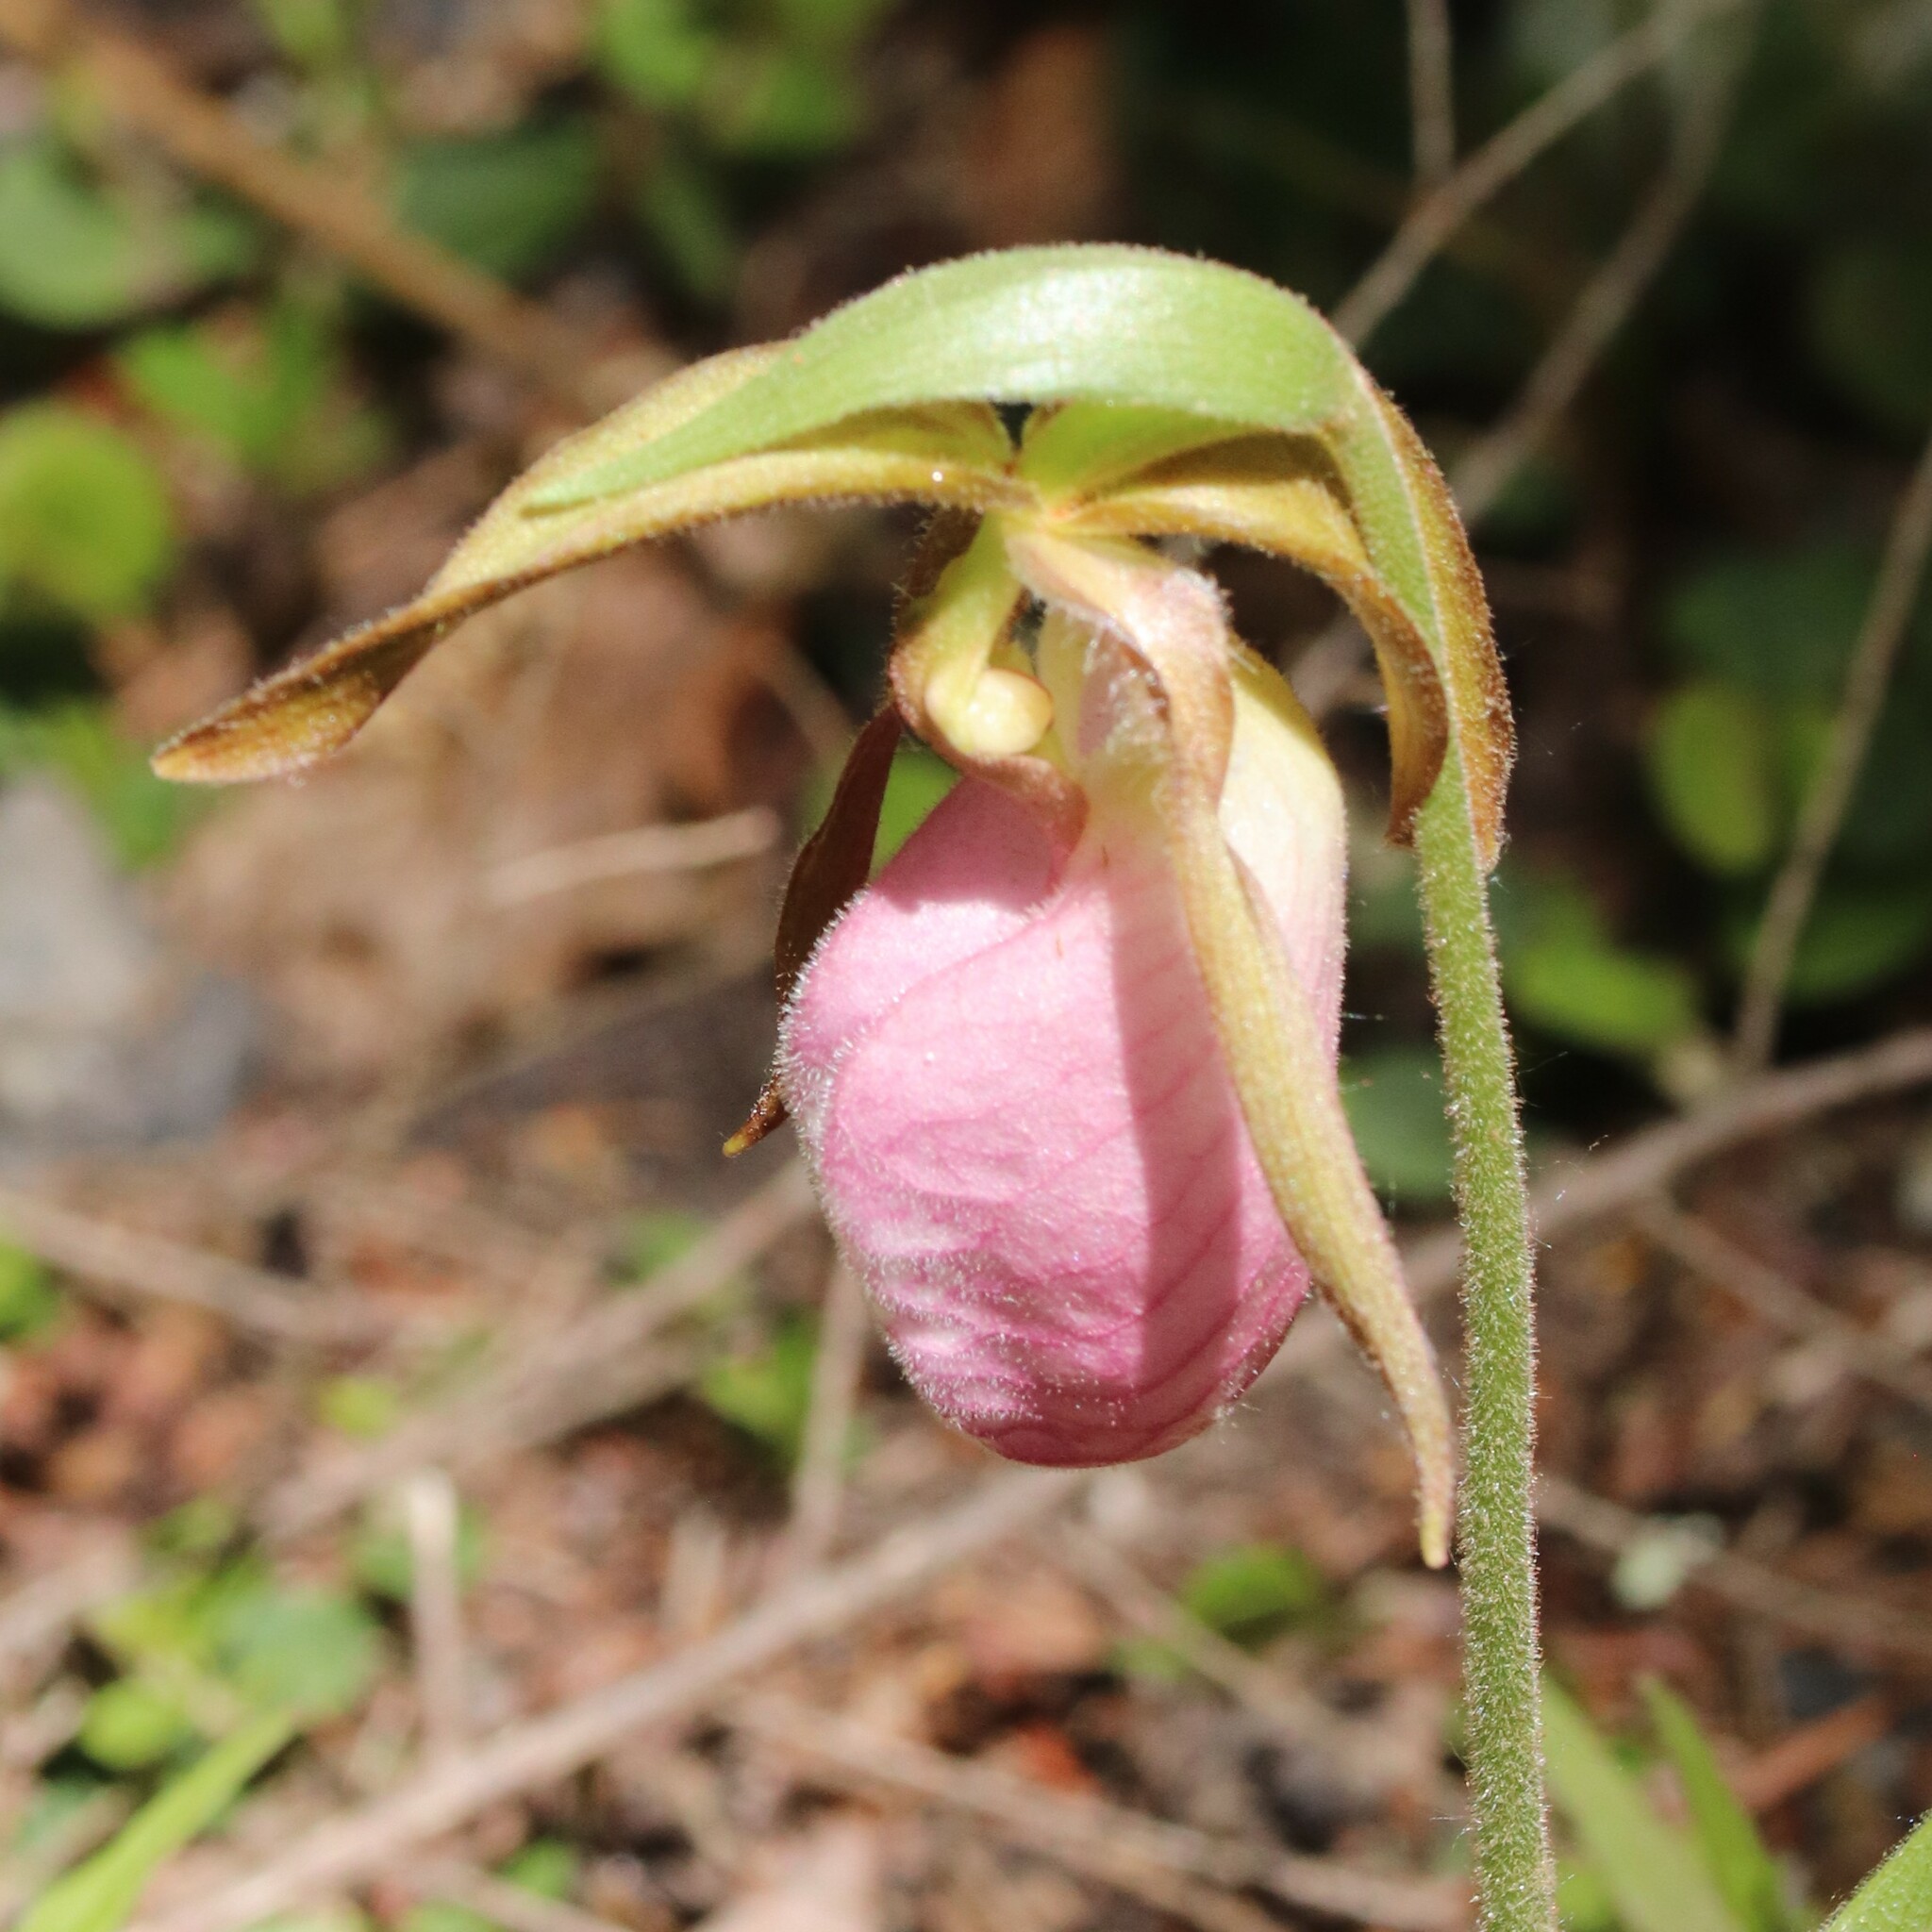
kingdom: Plantae
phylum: Tracheophyta
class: Liliopsida
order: Asparagales
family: Orchidaceae
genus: Cypripedium
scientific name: Cypripedium acaule
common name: Pink lady's-slipper
